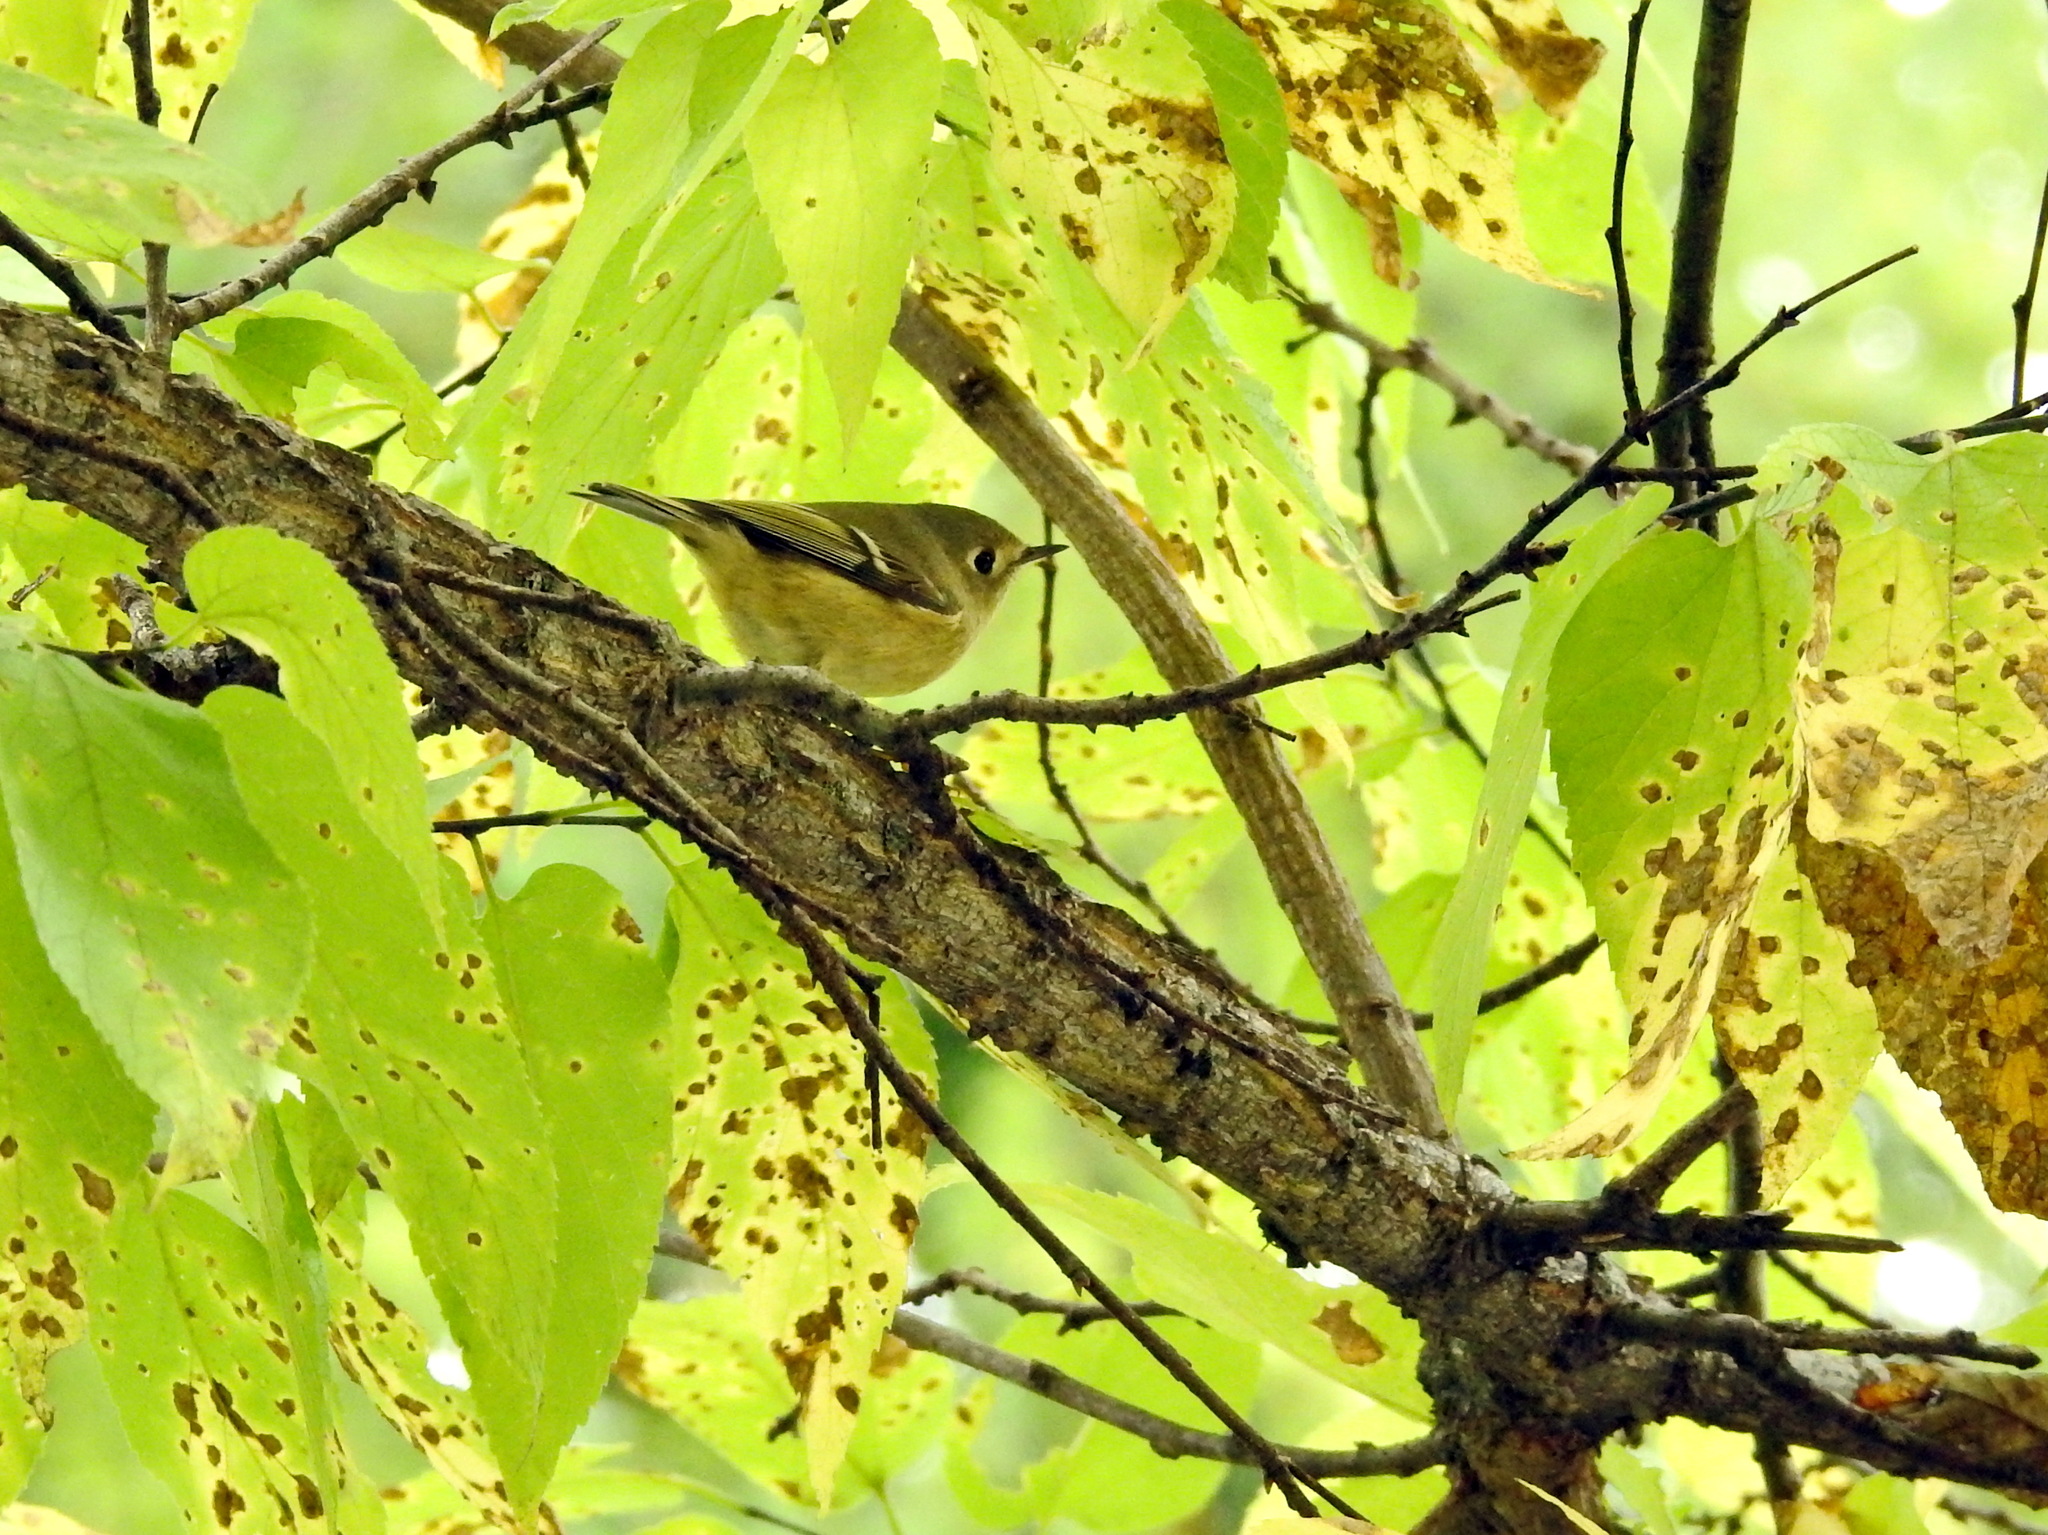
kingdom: Animalia
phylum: Chordata
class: Aves
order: Passeriformes
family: Regulidae
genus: Regulus
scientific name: Regulus calendula
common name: Ruby-crowned kinglet
